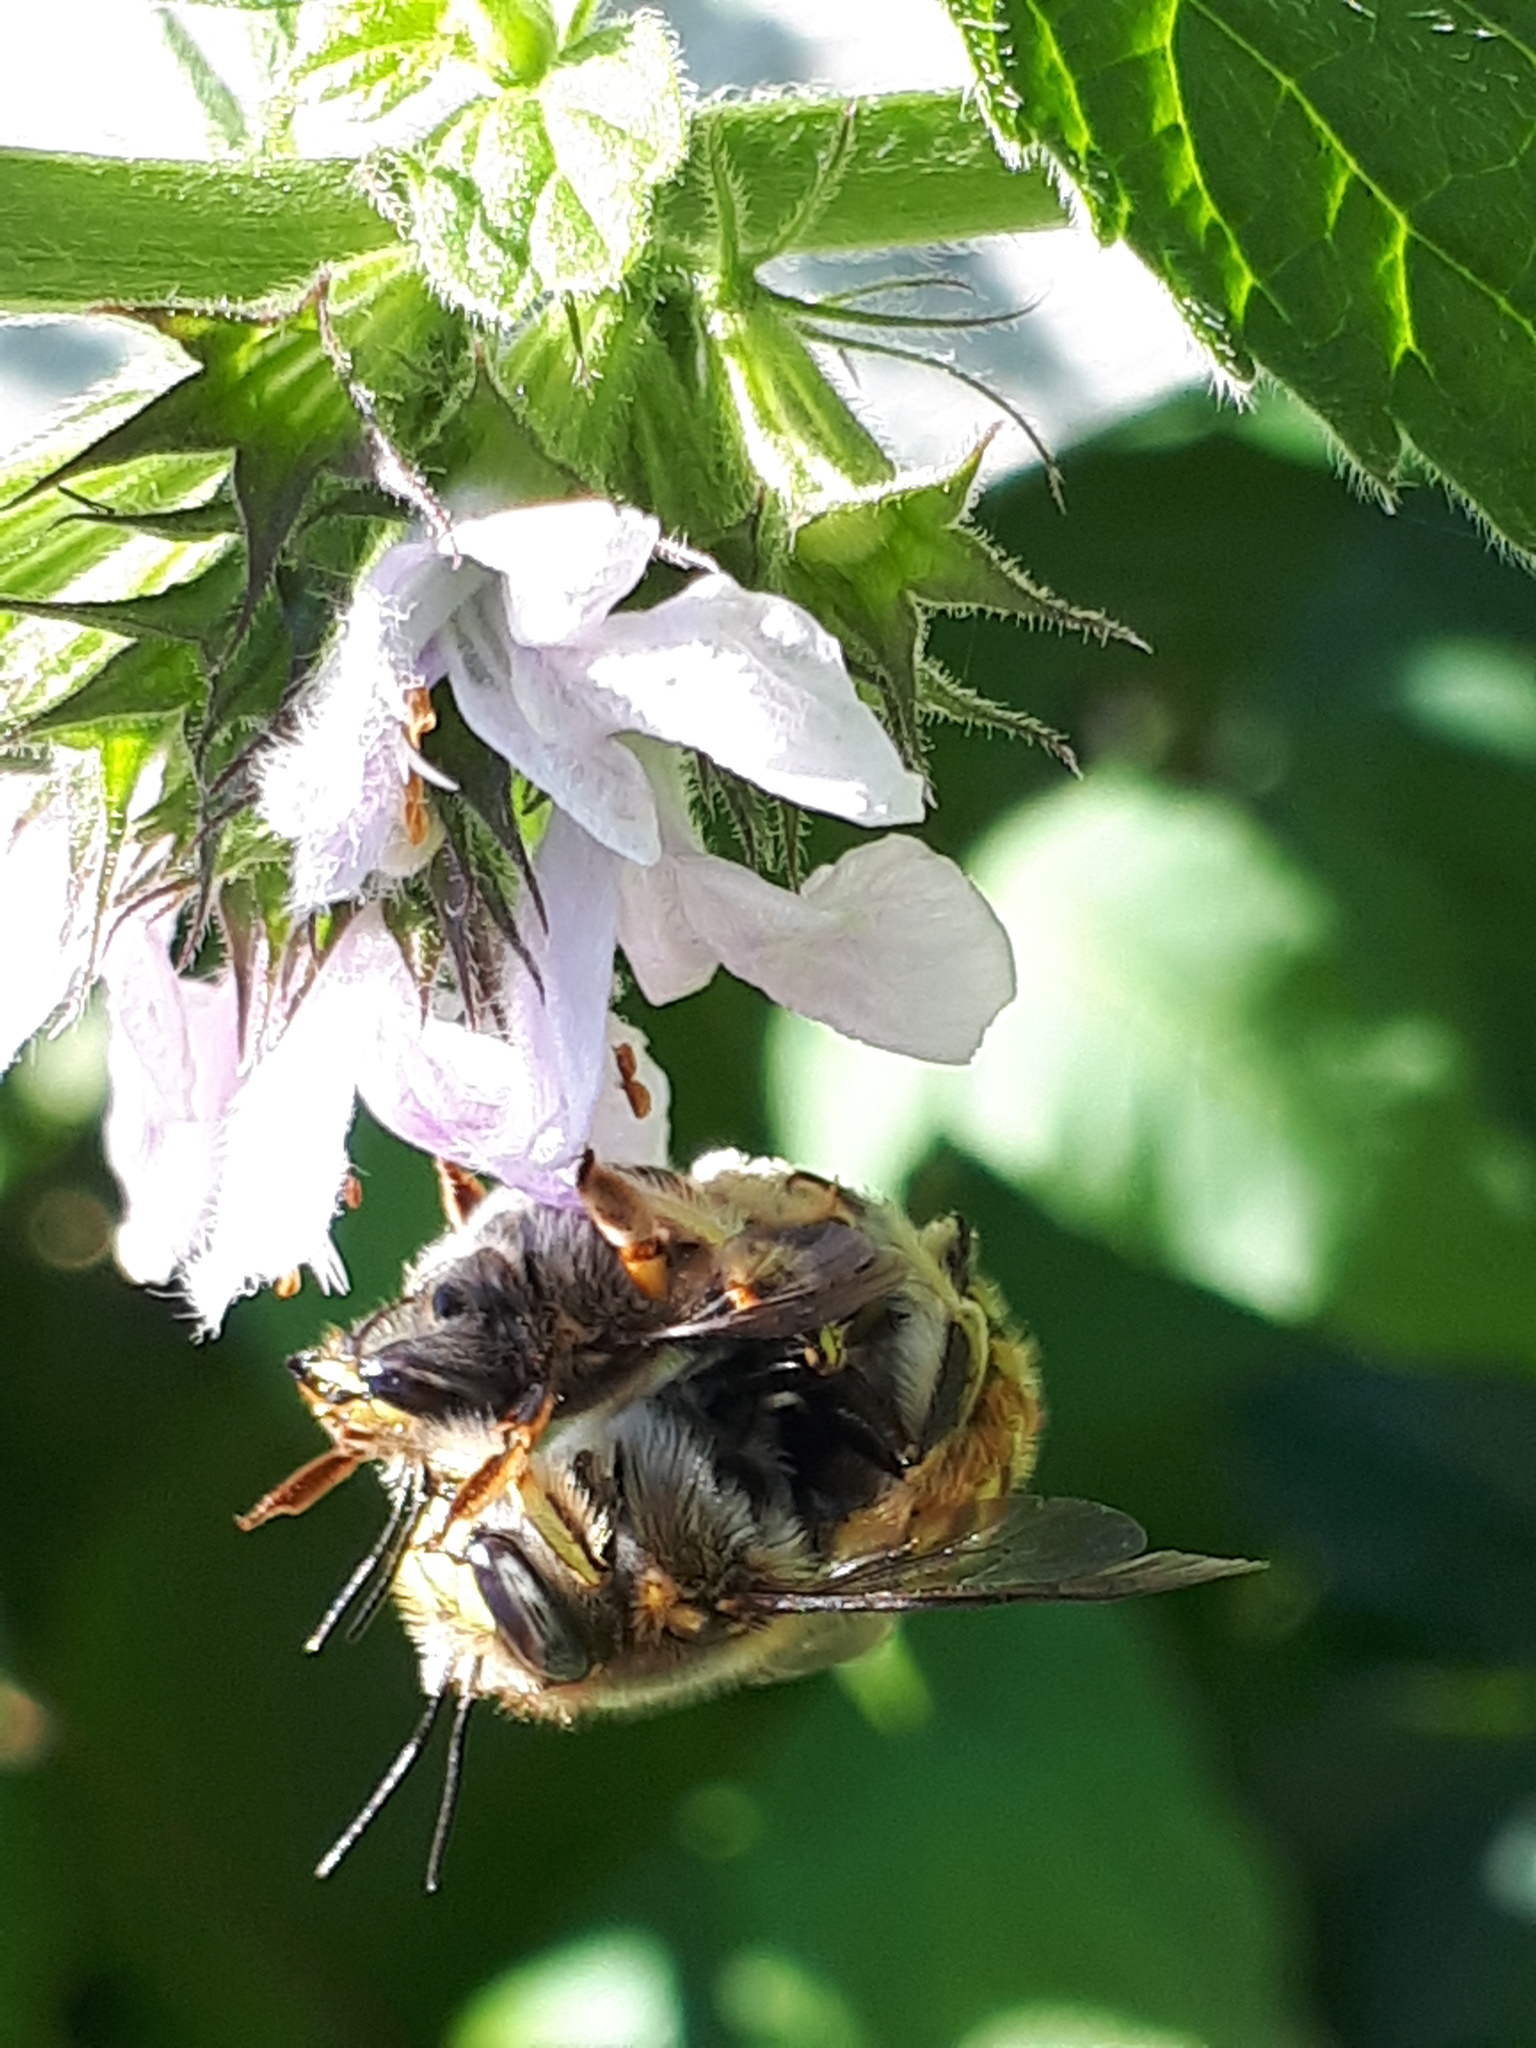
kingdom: Animalia
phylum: Arthropoda
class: Insecta
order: Hymenoptera
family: Megachilidae
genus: Anthidium
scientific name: Anthidium manicatum
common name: Wool carder bee
